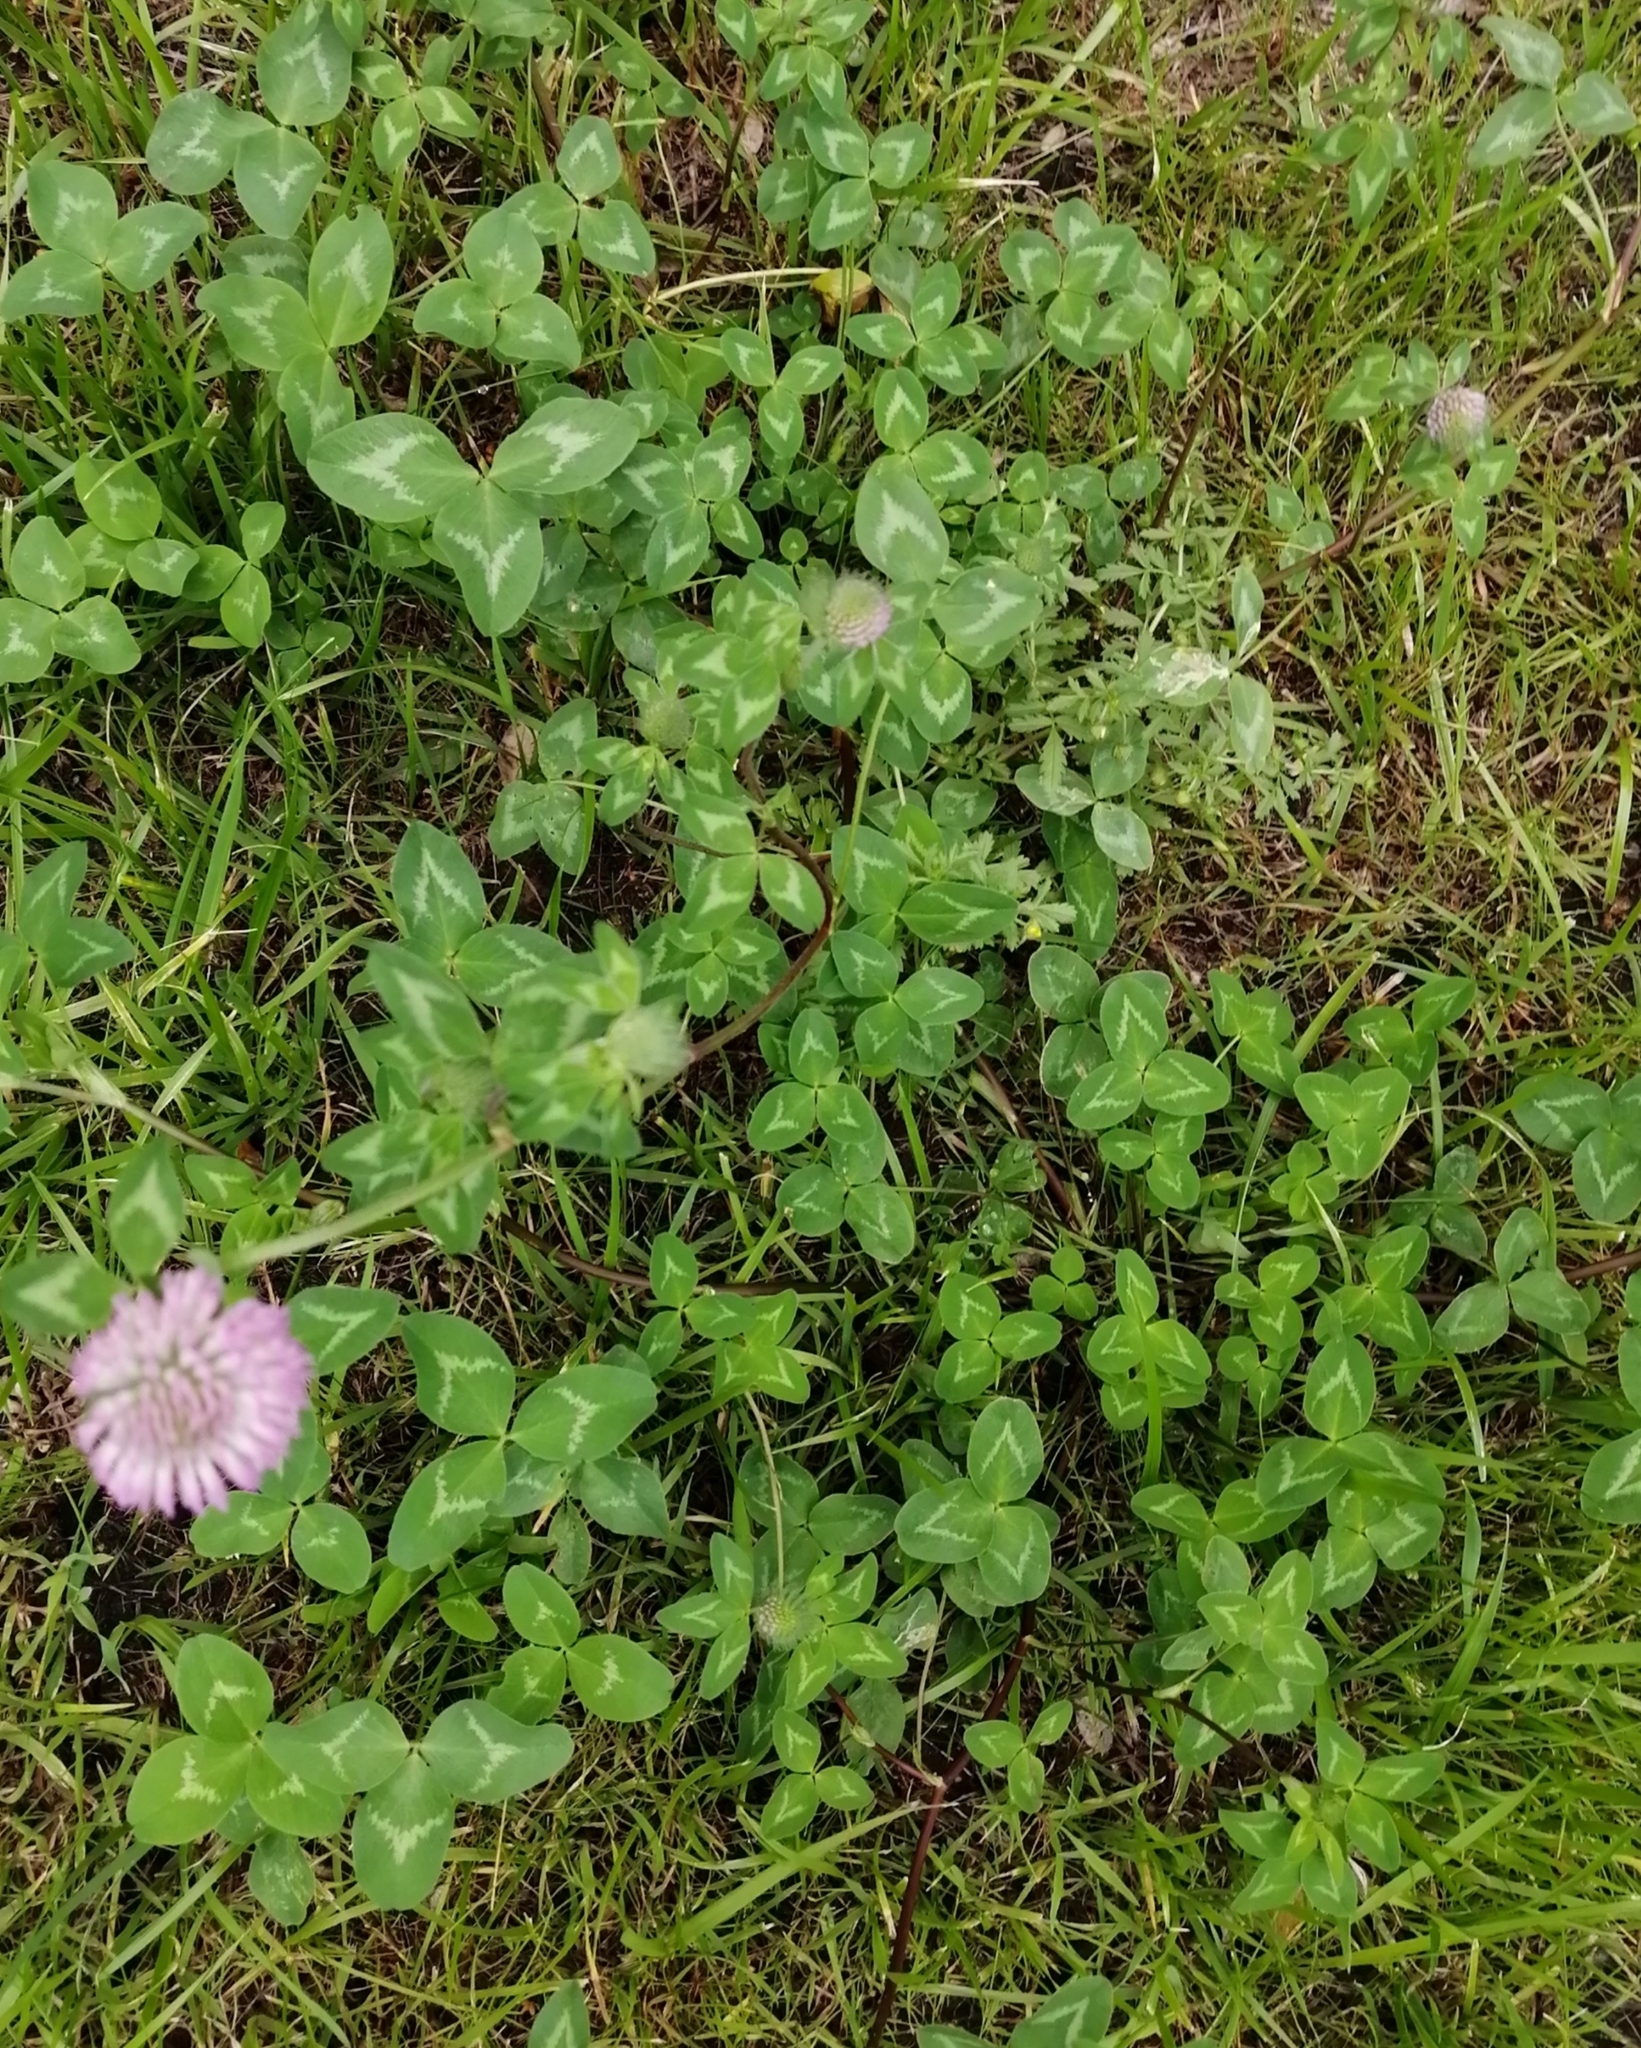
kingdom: Plantae
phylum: Tracheophyta
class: Magnoliopsida
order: Fabales
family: Fabaceae
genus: Trifolium
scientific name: Trifolium pratense
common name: Red clover
